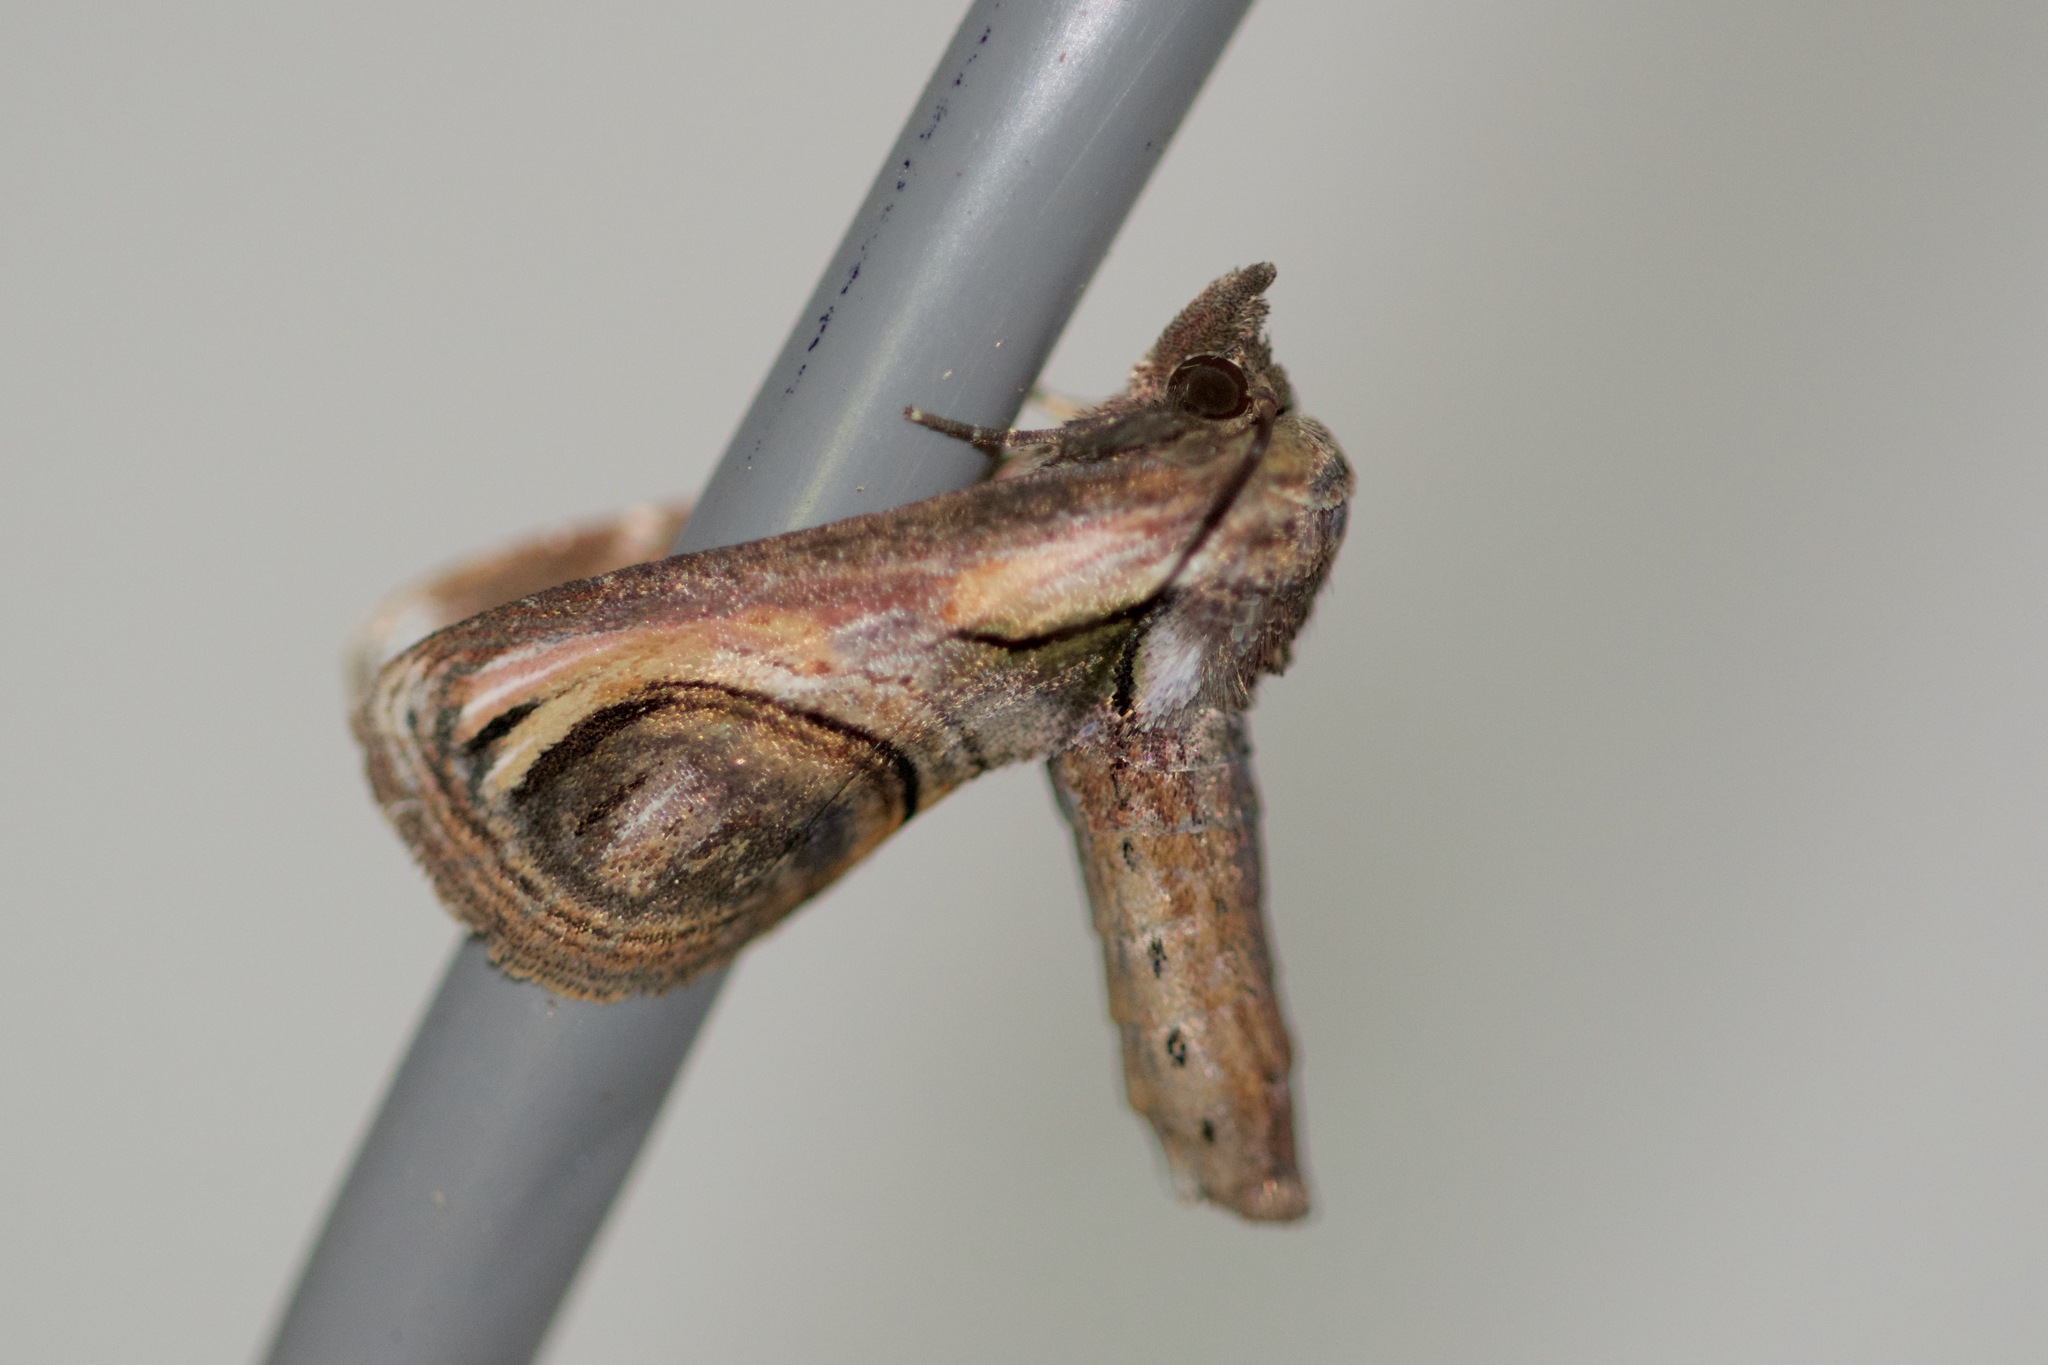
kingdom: Animalia
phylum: Arthropoda
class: Insecta
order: Lepidoptera
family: Euteliidae
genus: Paectes
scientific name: Paectes oculatrix
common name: Eyed paectes moth
